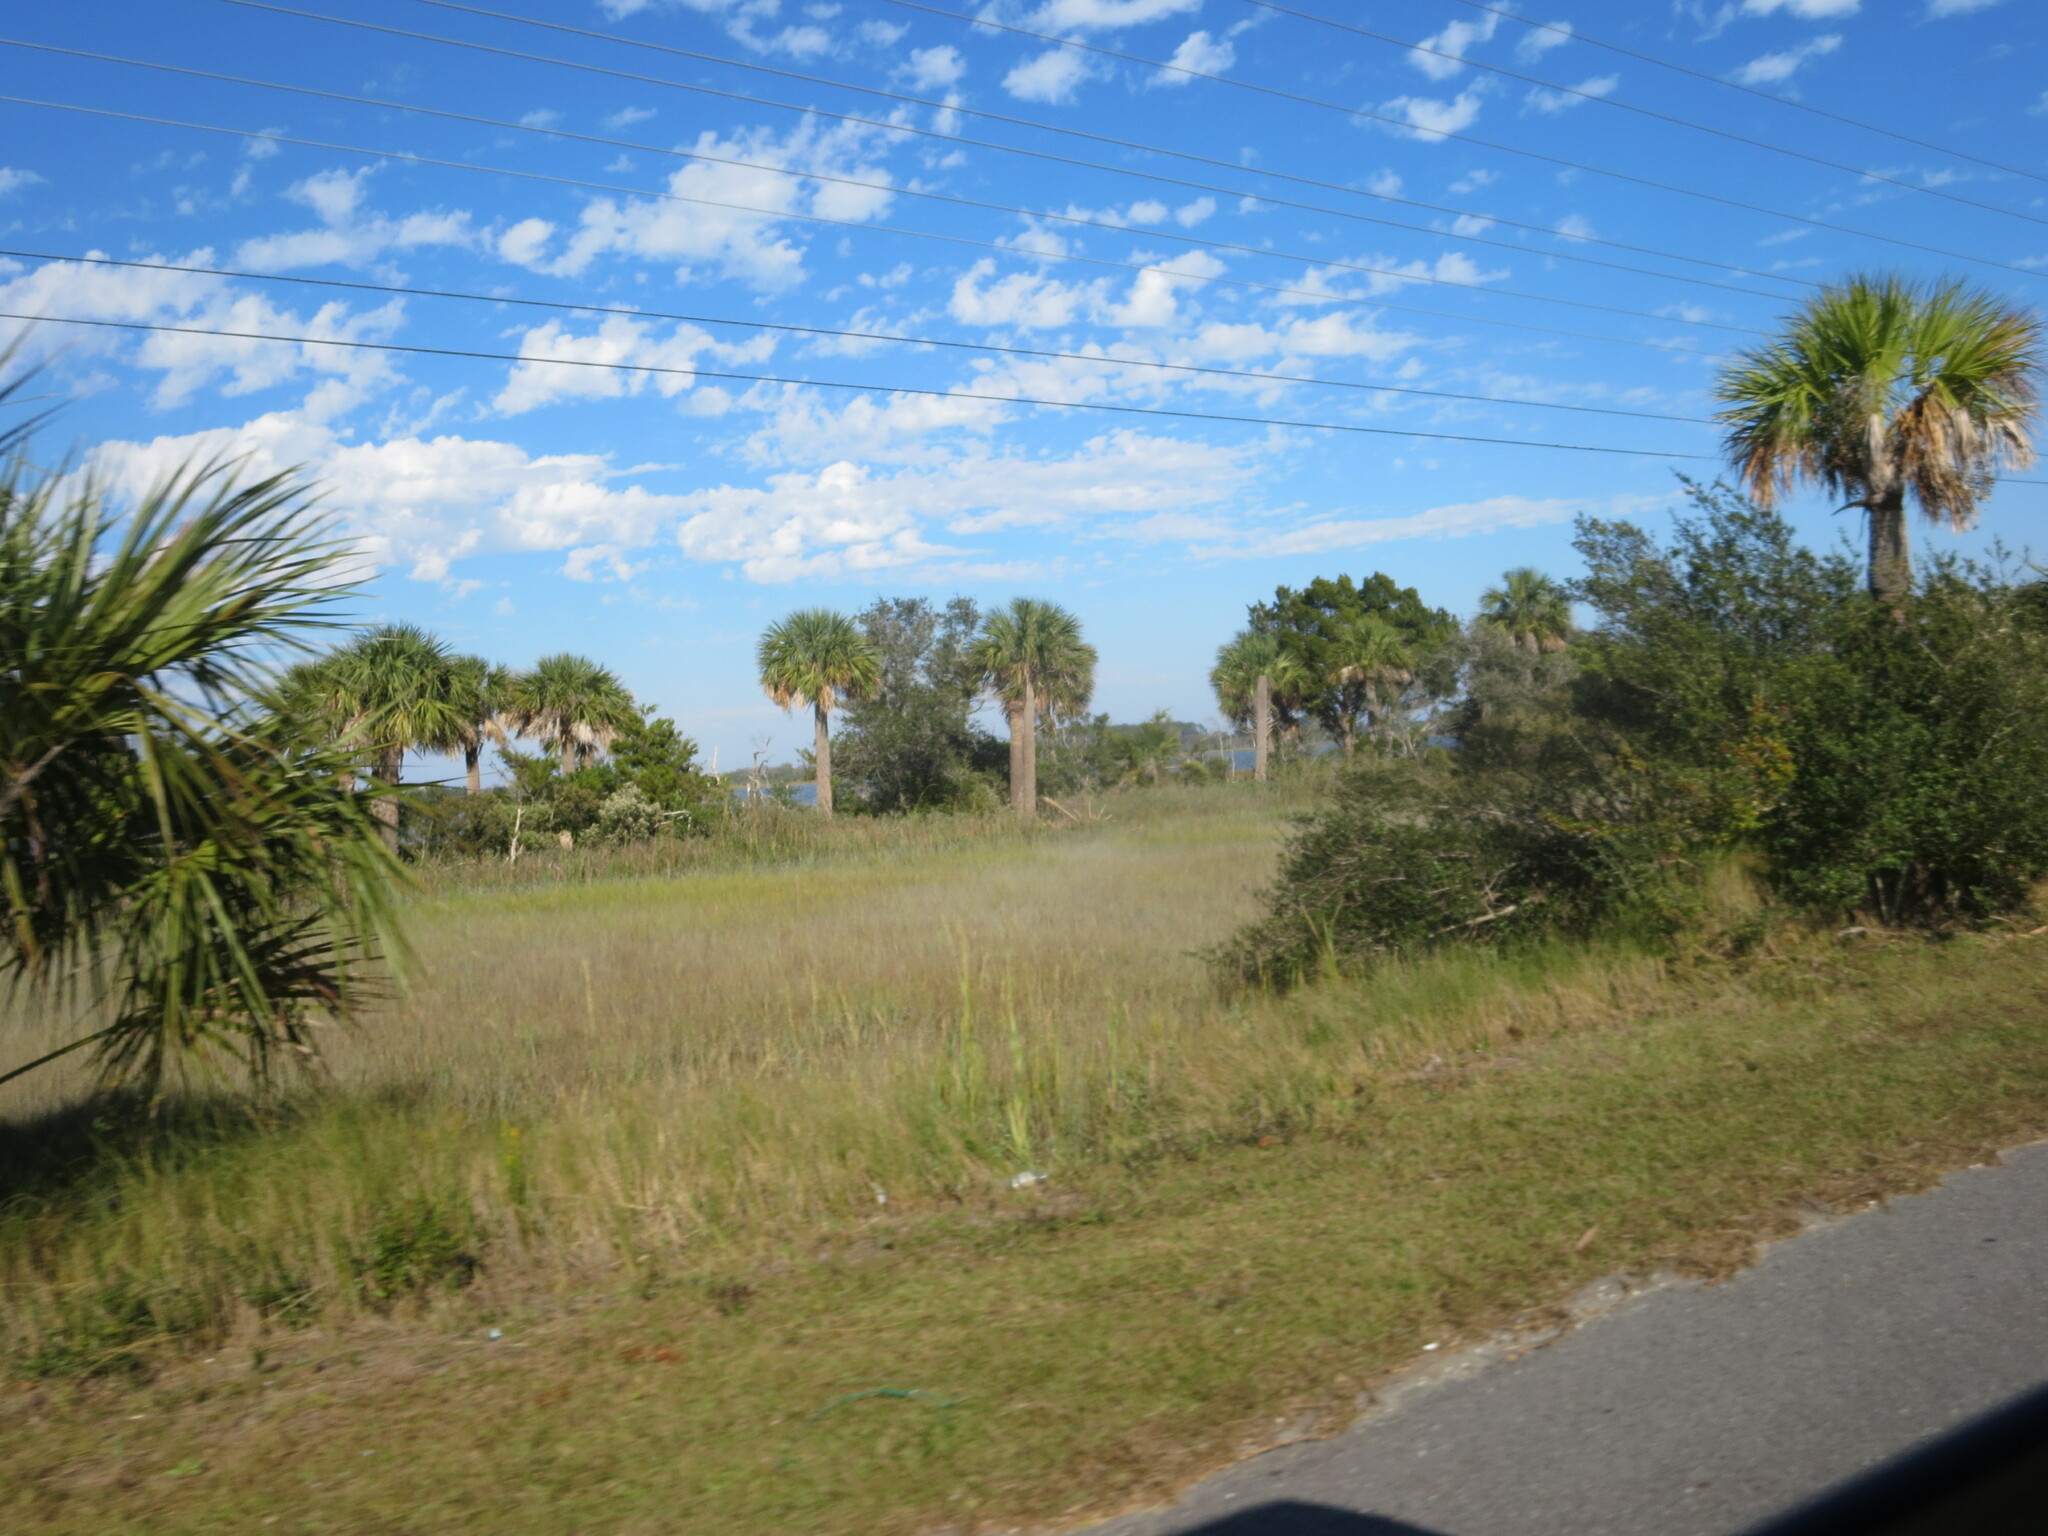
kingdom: Plantae
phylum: Tracheophyta
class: Liliopsida
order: Arecales
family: Arecaceae
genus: Sabal
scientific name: Sabal palmetto
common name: Blue palmetto
